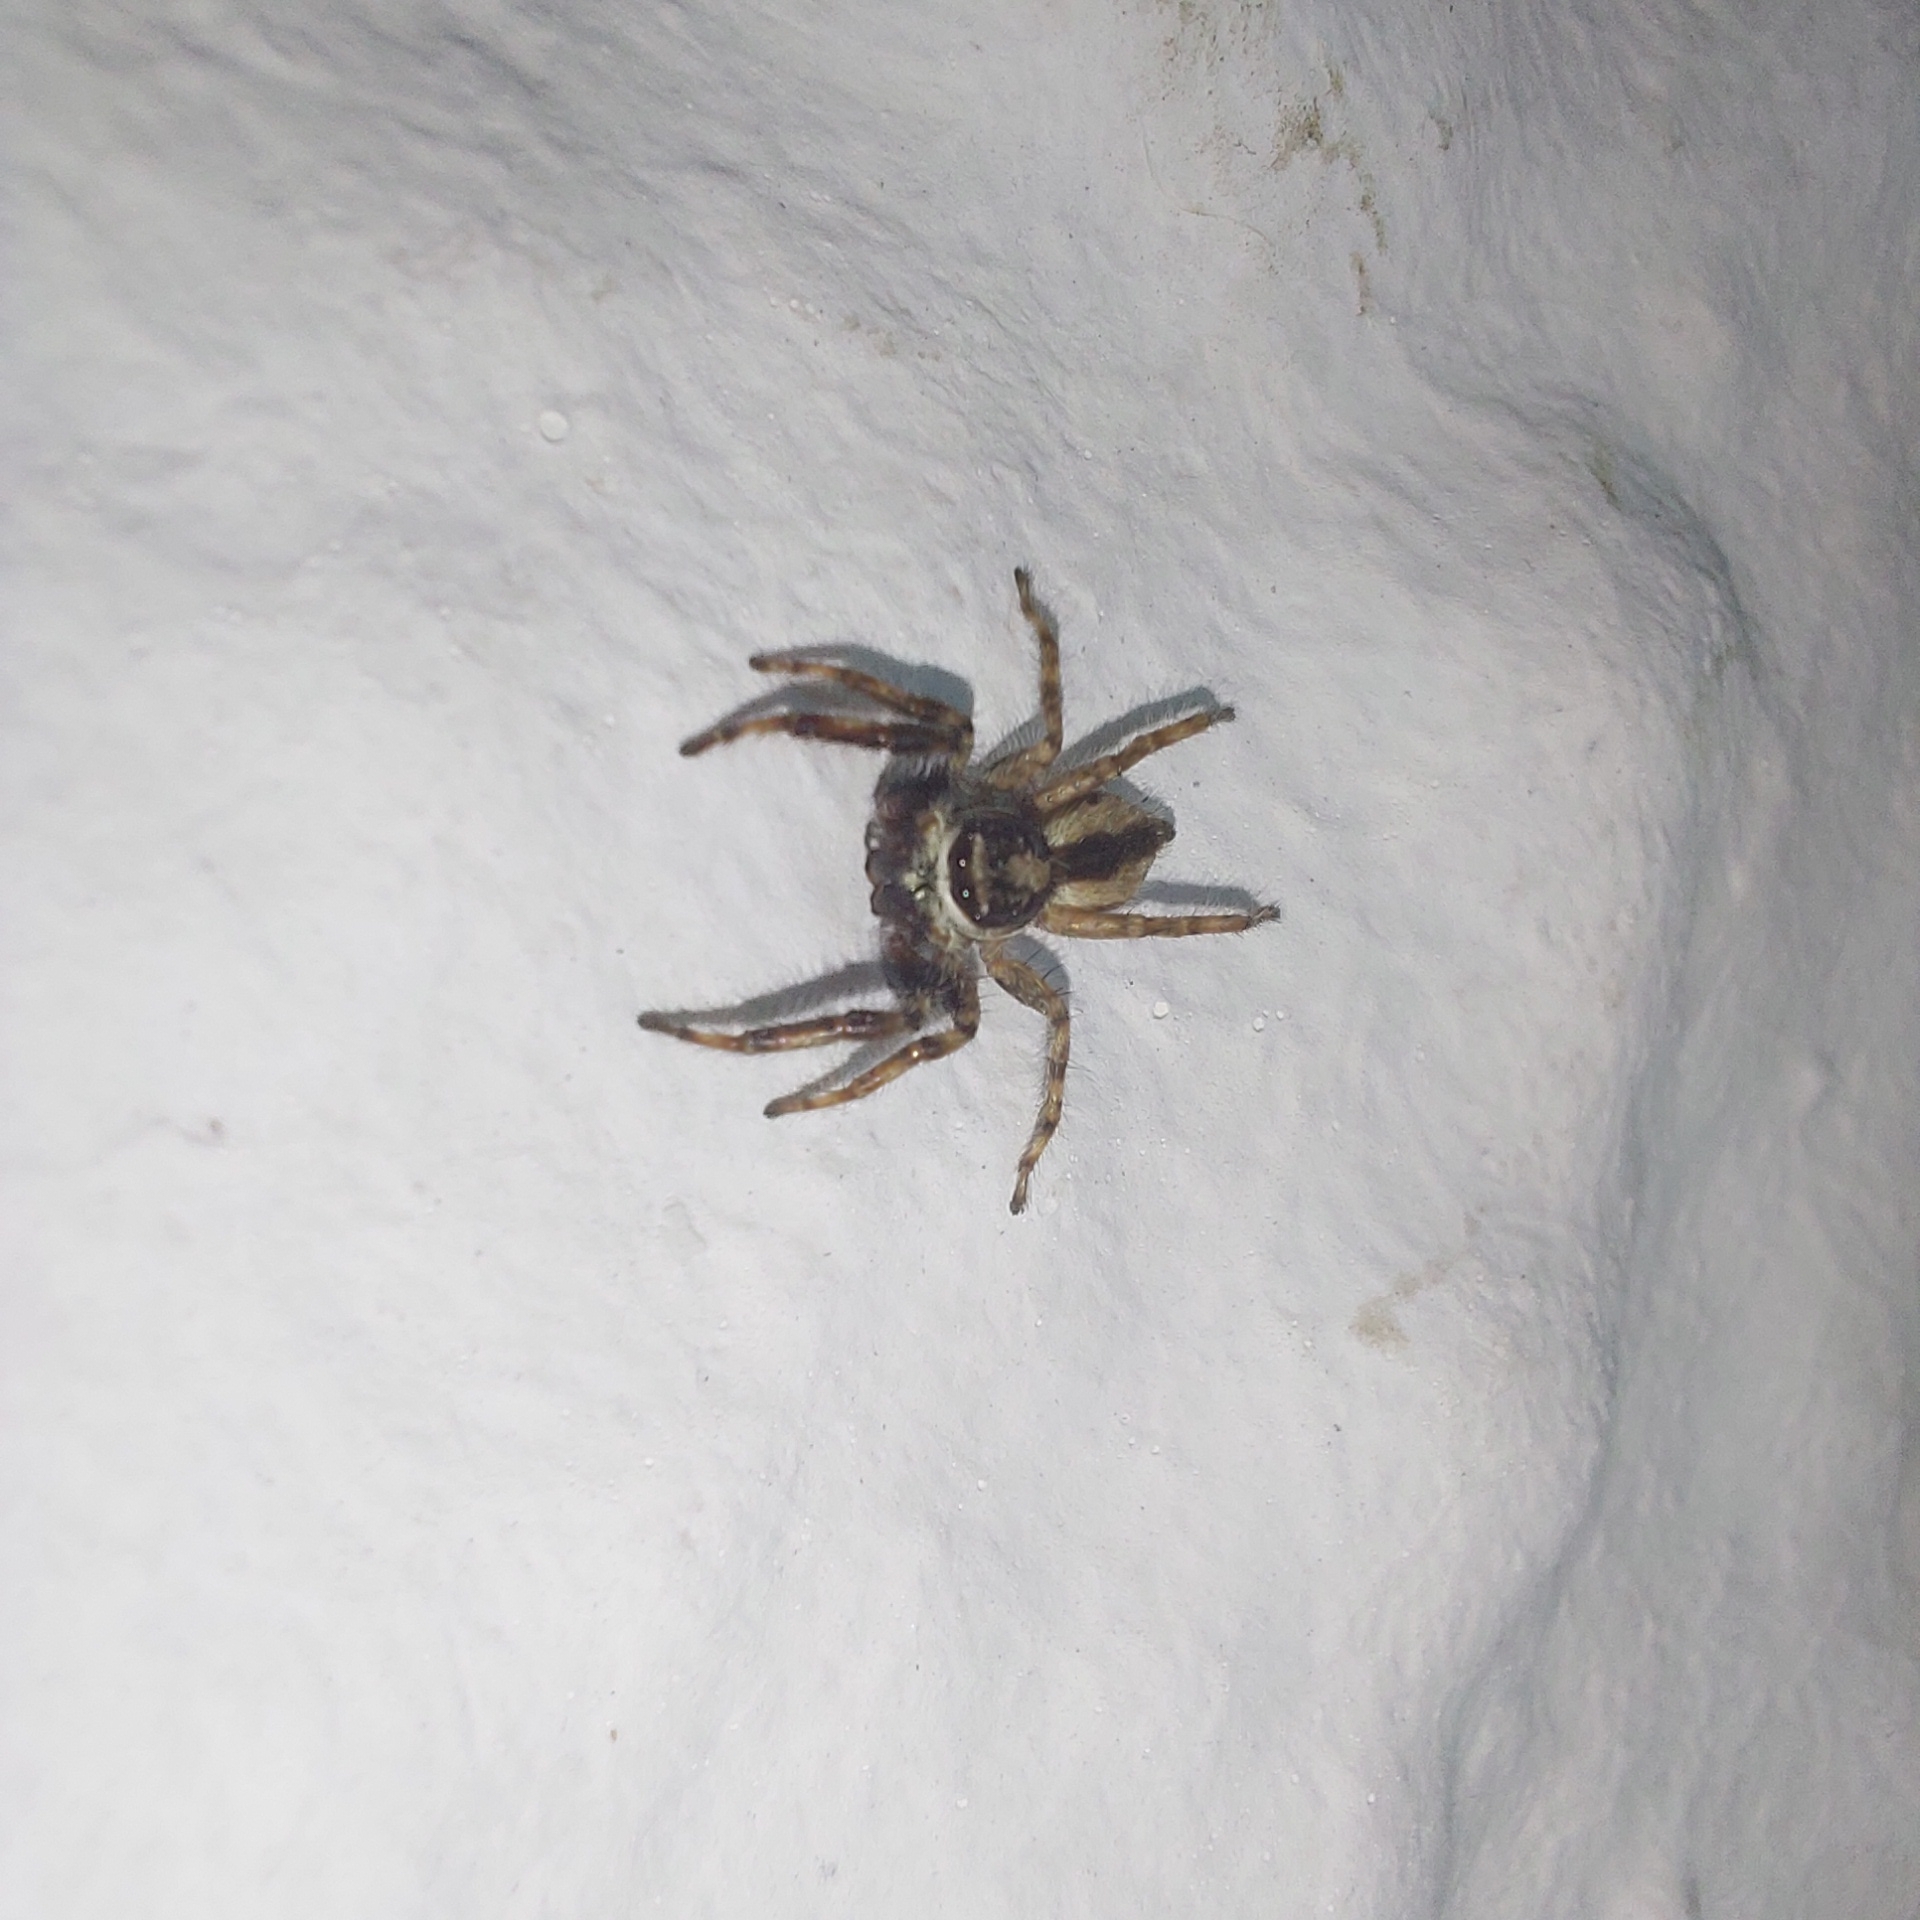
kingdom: Animalia
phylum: Arthropoda
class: Arachnida
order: Araneae
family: Salticidae
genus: Menemerus
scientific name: Menemerus bivittatus
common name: Gray wall jumper
